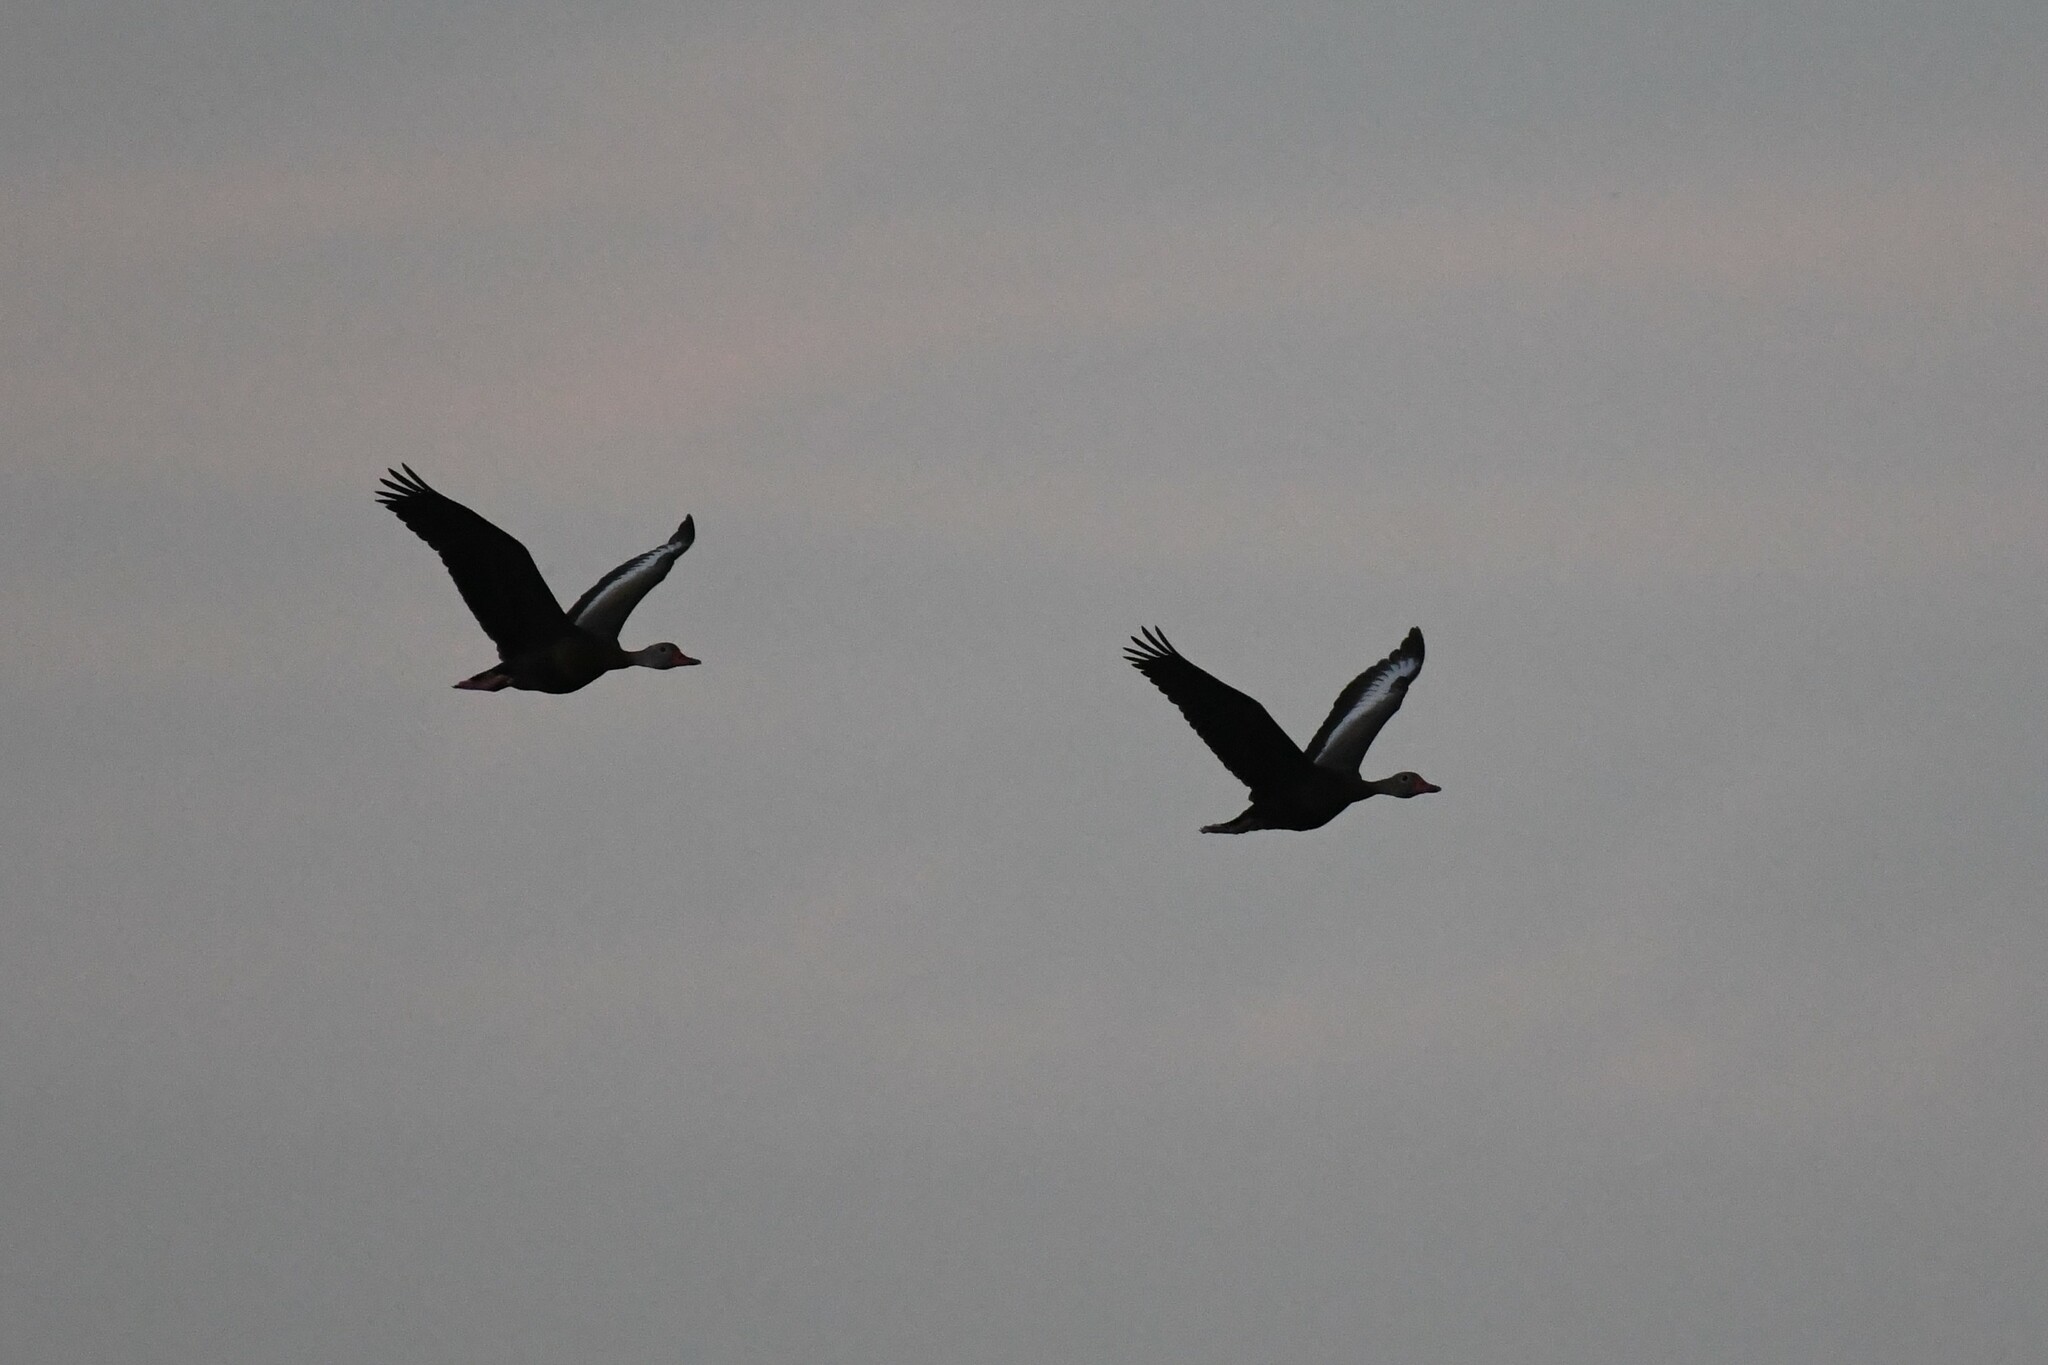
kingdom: Animalia
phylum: Chordata
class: Aves
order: Anseriformes
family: Anatidae
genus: Dendrocygna
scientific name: Dendrocygna autumnalis
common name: Black-bellied whistling duck
